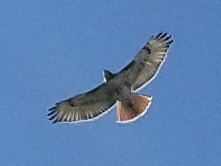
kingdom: Animalia
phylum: Chordata
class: Aves
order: Accipitriformes
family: Accipitridae
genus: Buteo
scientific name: Buteo jamaicensis
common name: Red-tailed hawk
